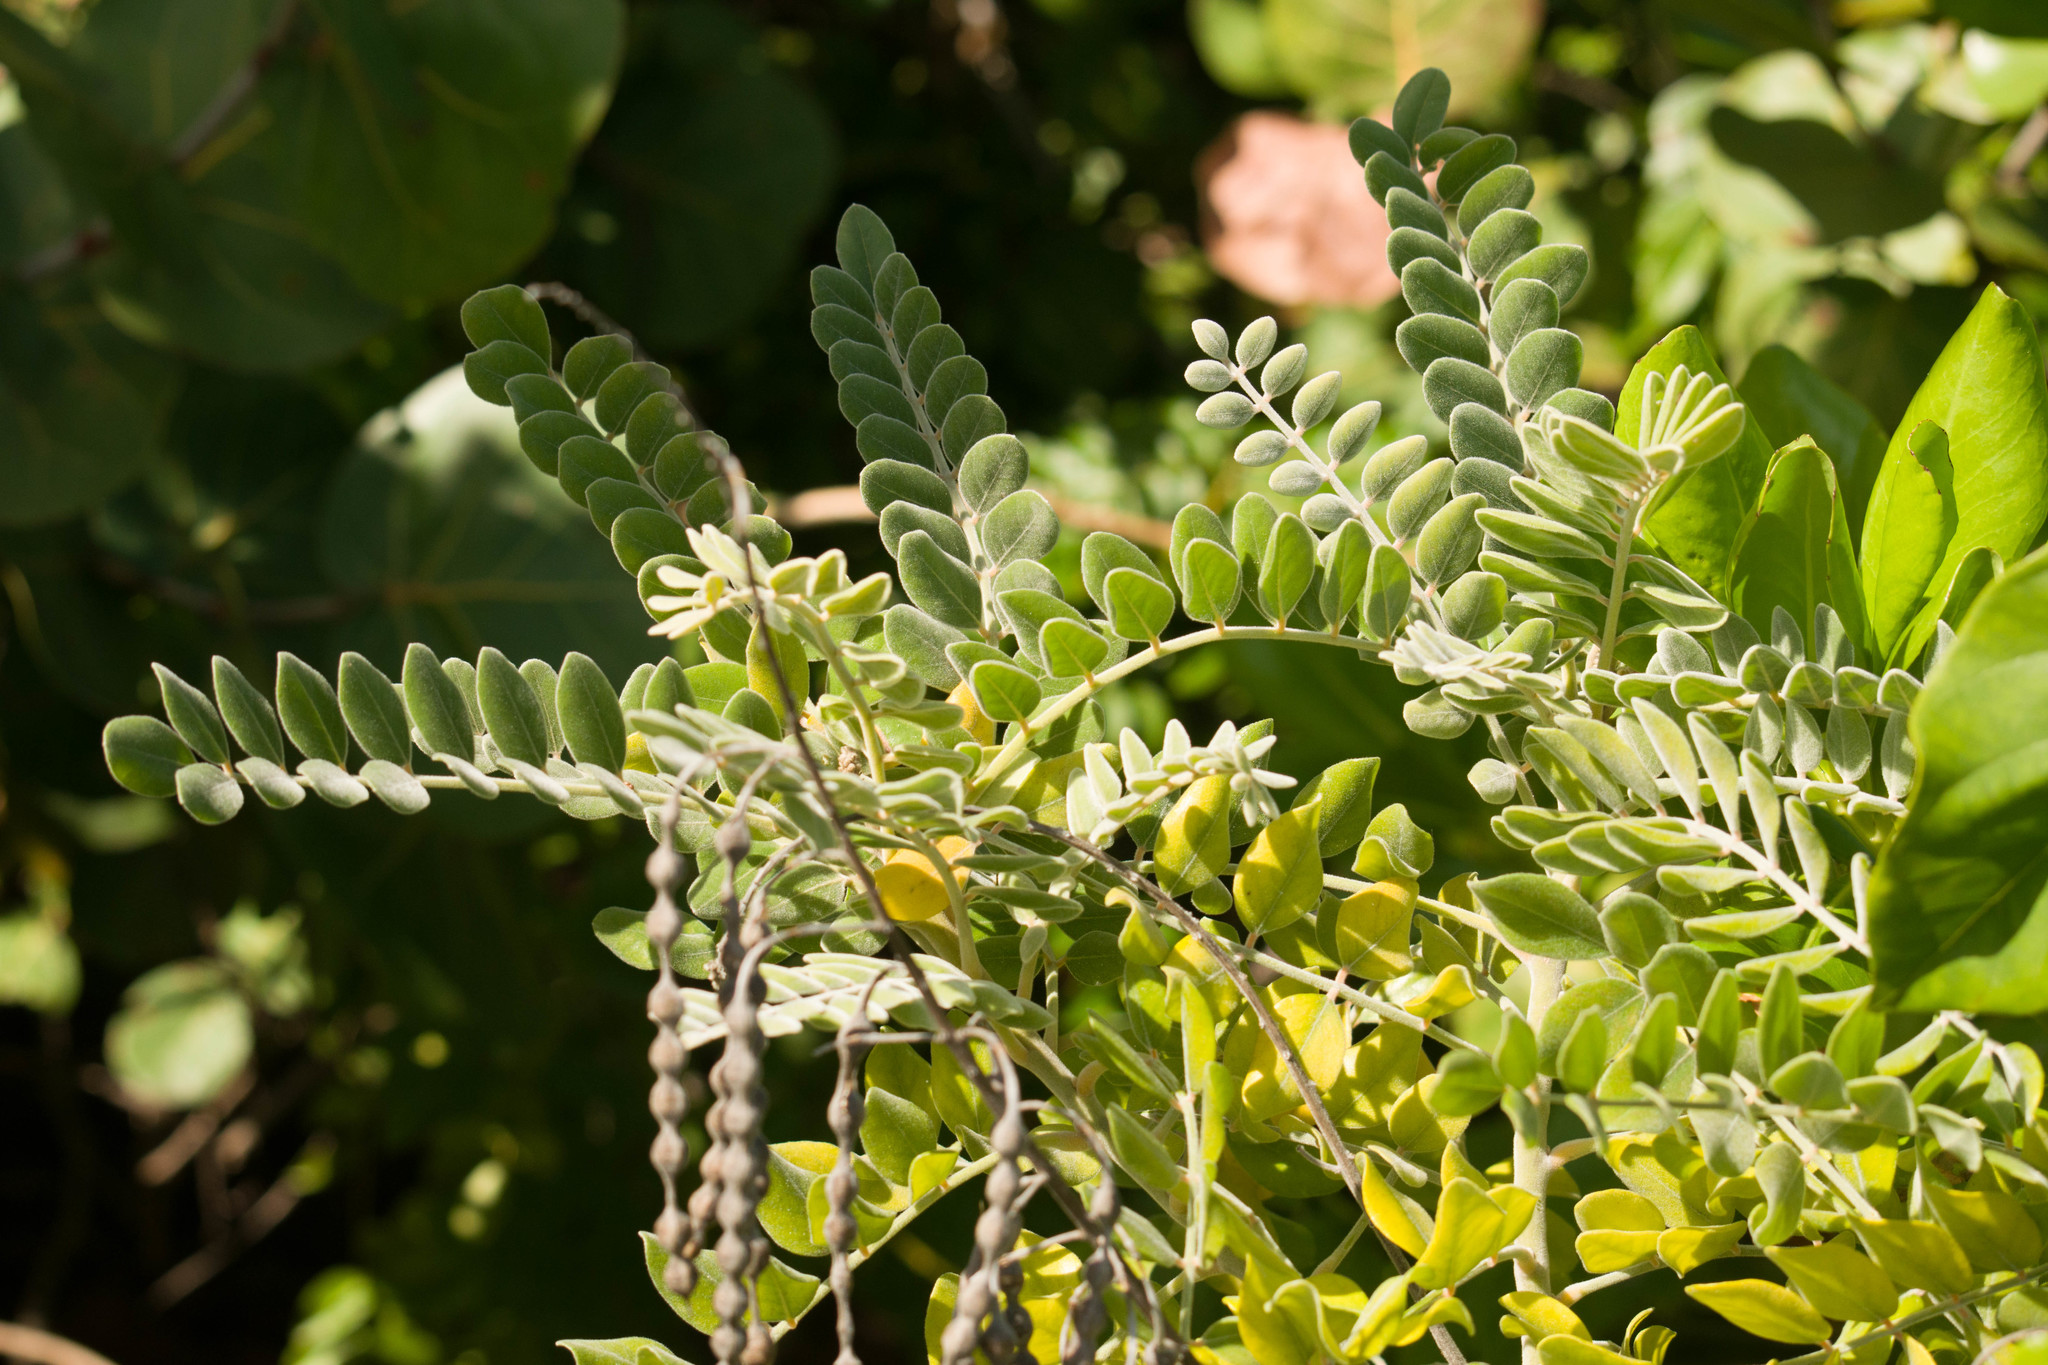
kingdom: Plantae
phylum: Tracheophyta
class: Magnoliopsida
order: Fabales
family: Fabaceae
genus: Sophora
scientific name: Sophora tomentosa
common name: Yellow necklacepod
